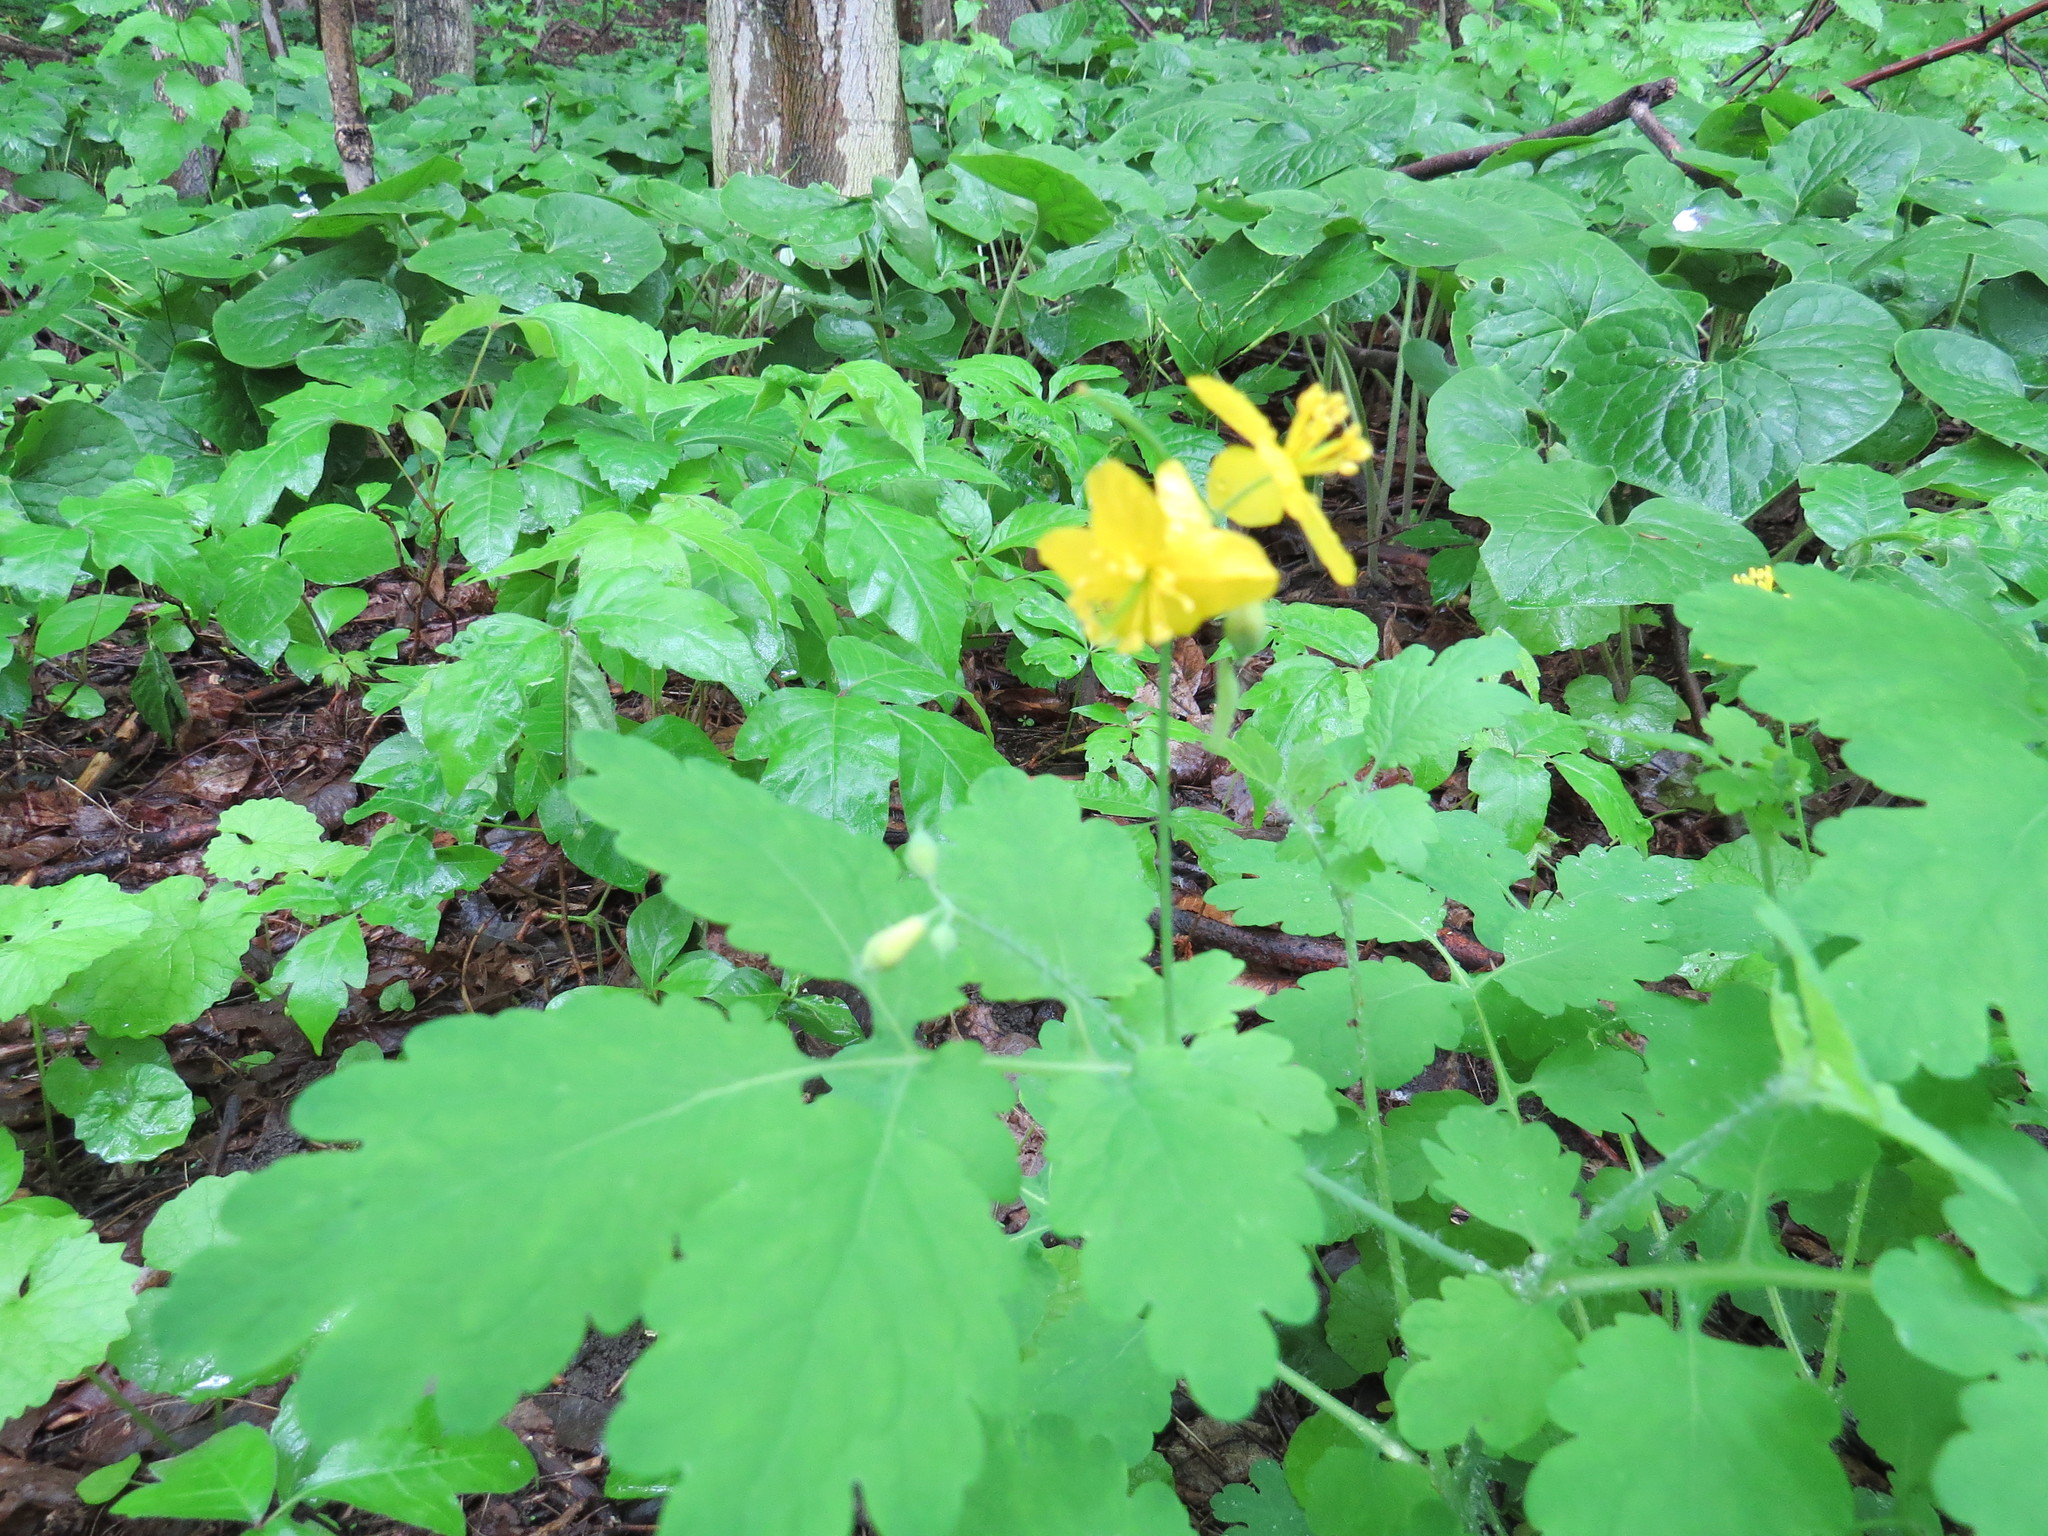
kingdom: Plantae
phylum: Tracheophyta
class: Magnoliopsida
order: Ranunculales
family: Papaveraceae
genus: Chelidonium
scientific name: Chelidonium majus
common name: Greater celandine
